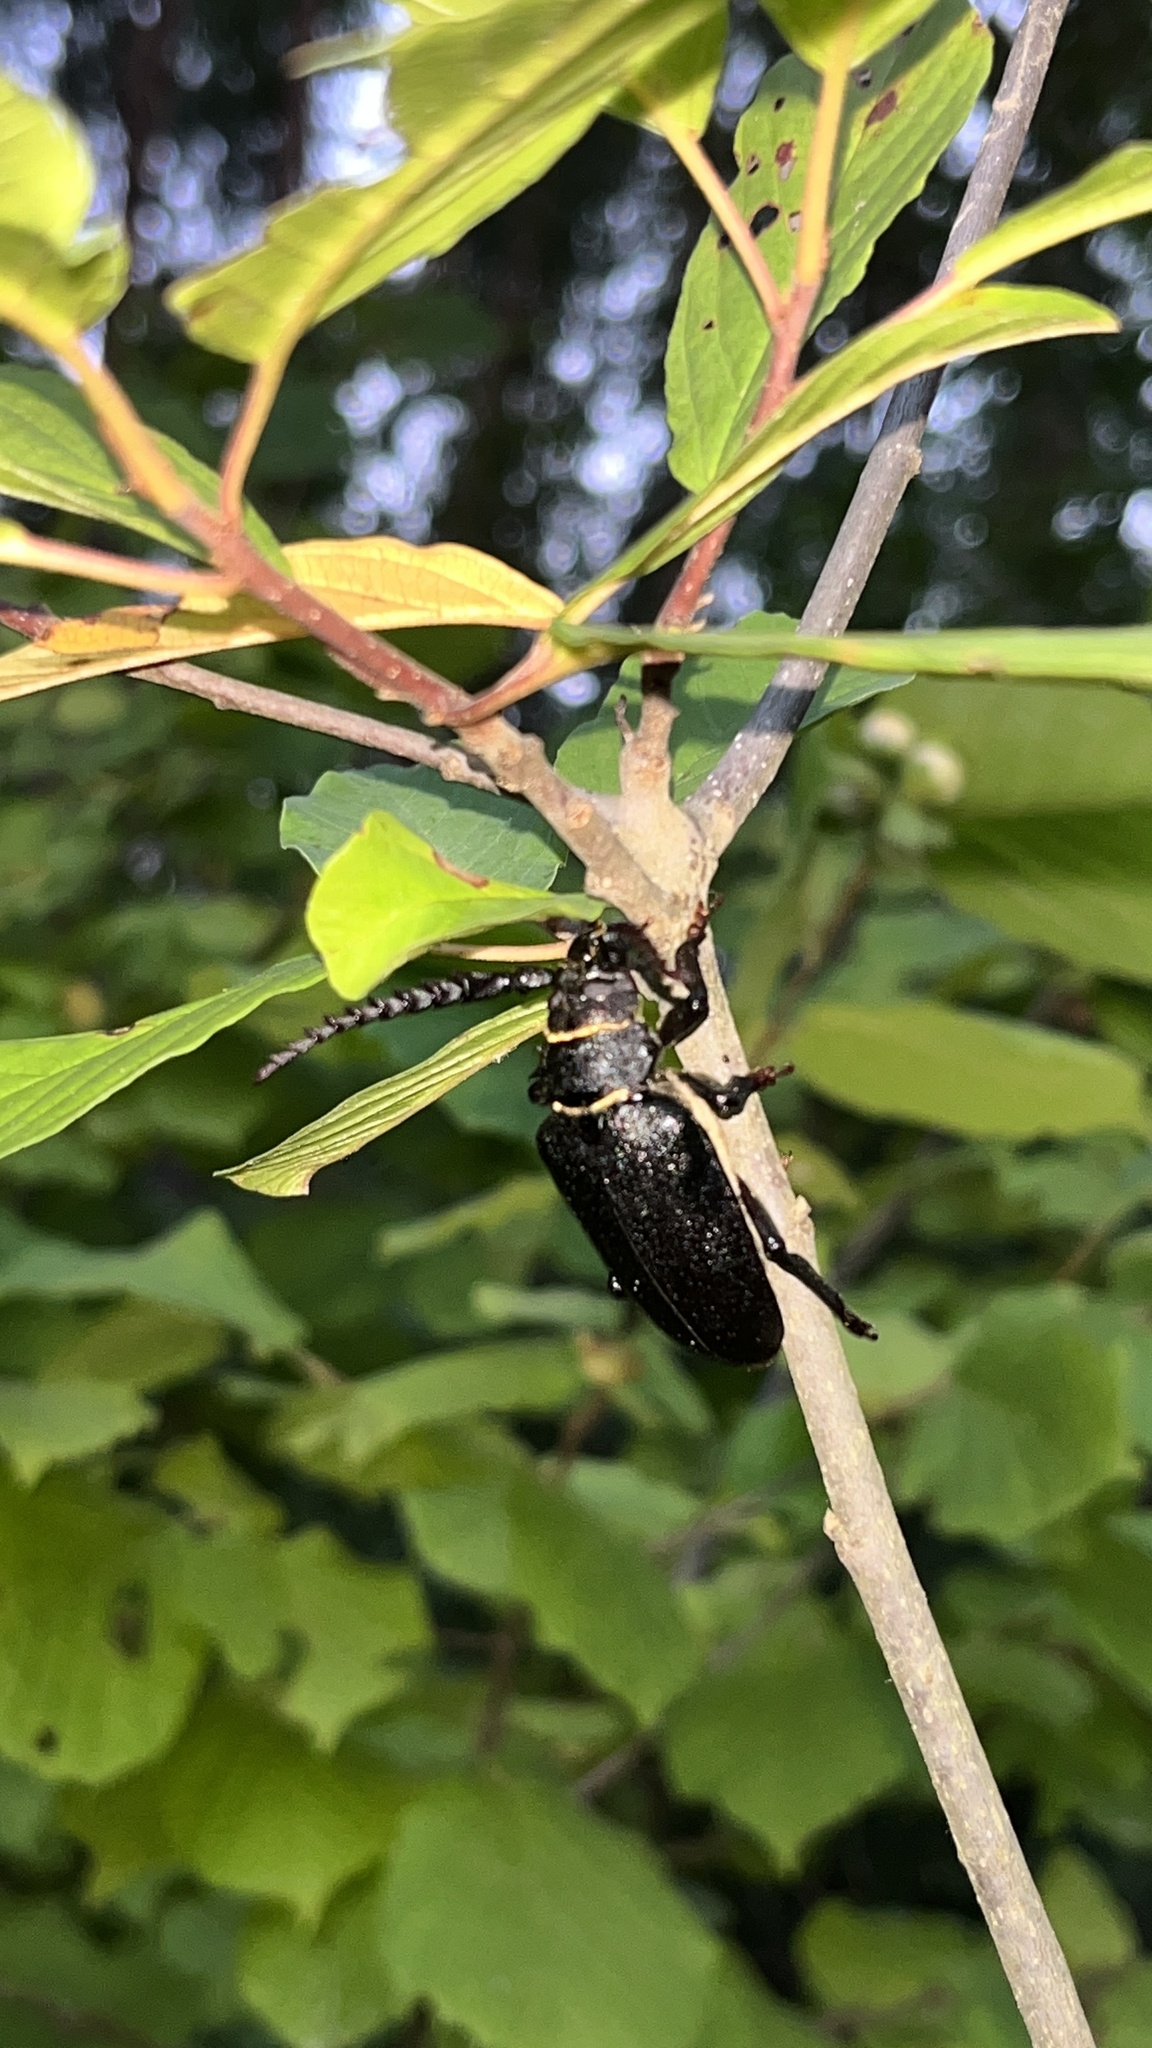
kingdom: Animalia
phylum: Arthropoda
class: Insecta
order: Coleoptera
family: Cerambycidae
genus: Prionus
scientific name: Prionus coriarius
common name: Tanner beetle
